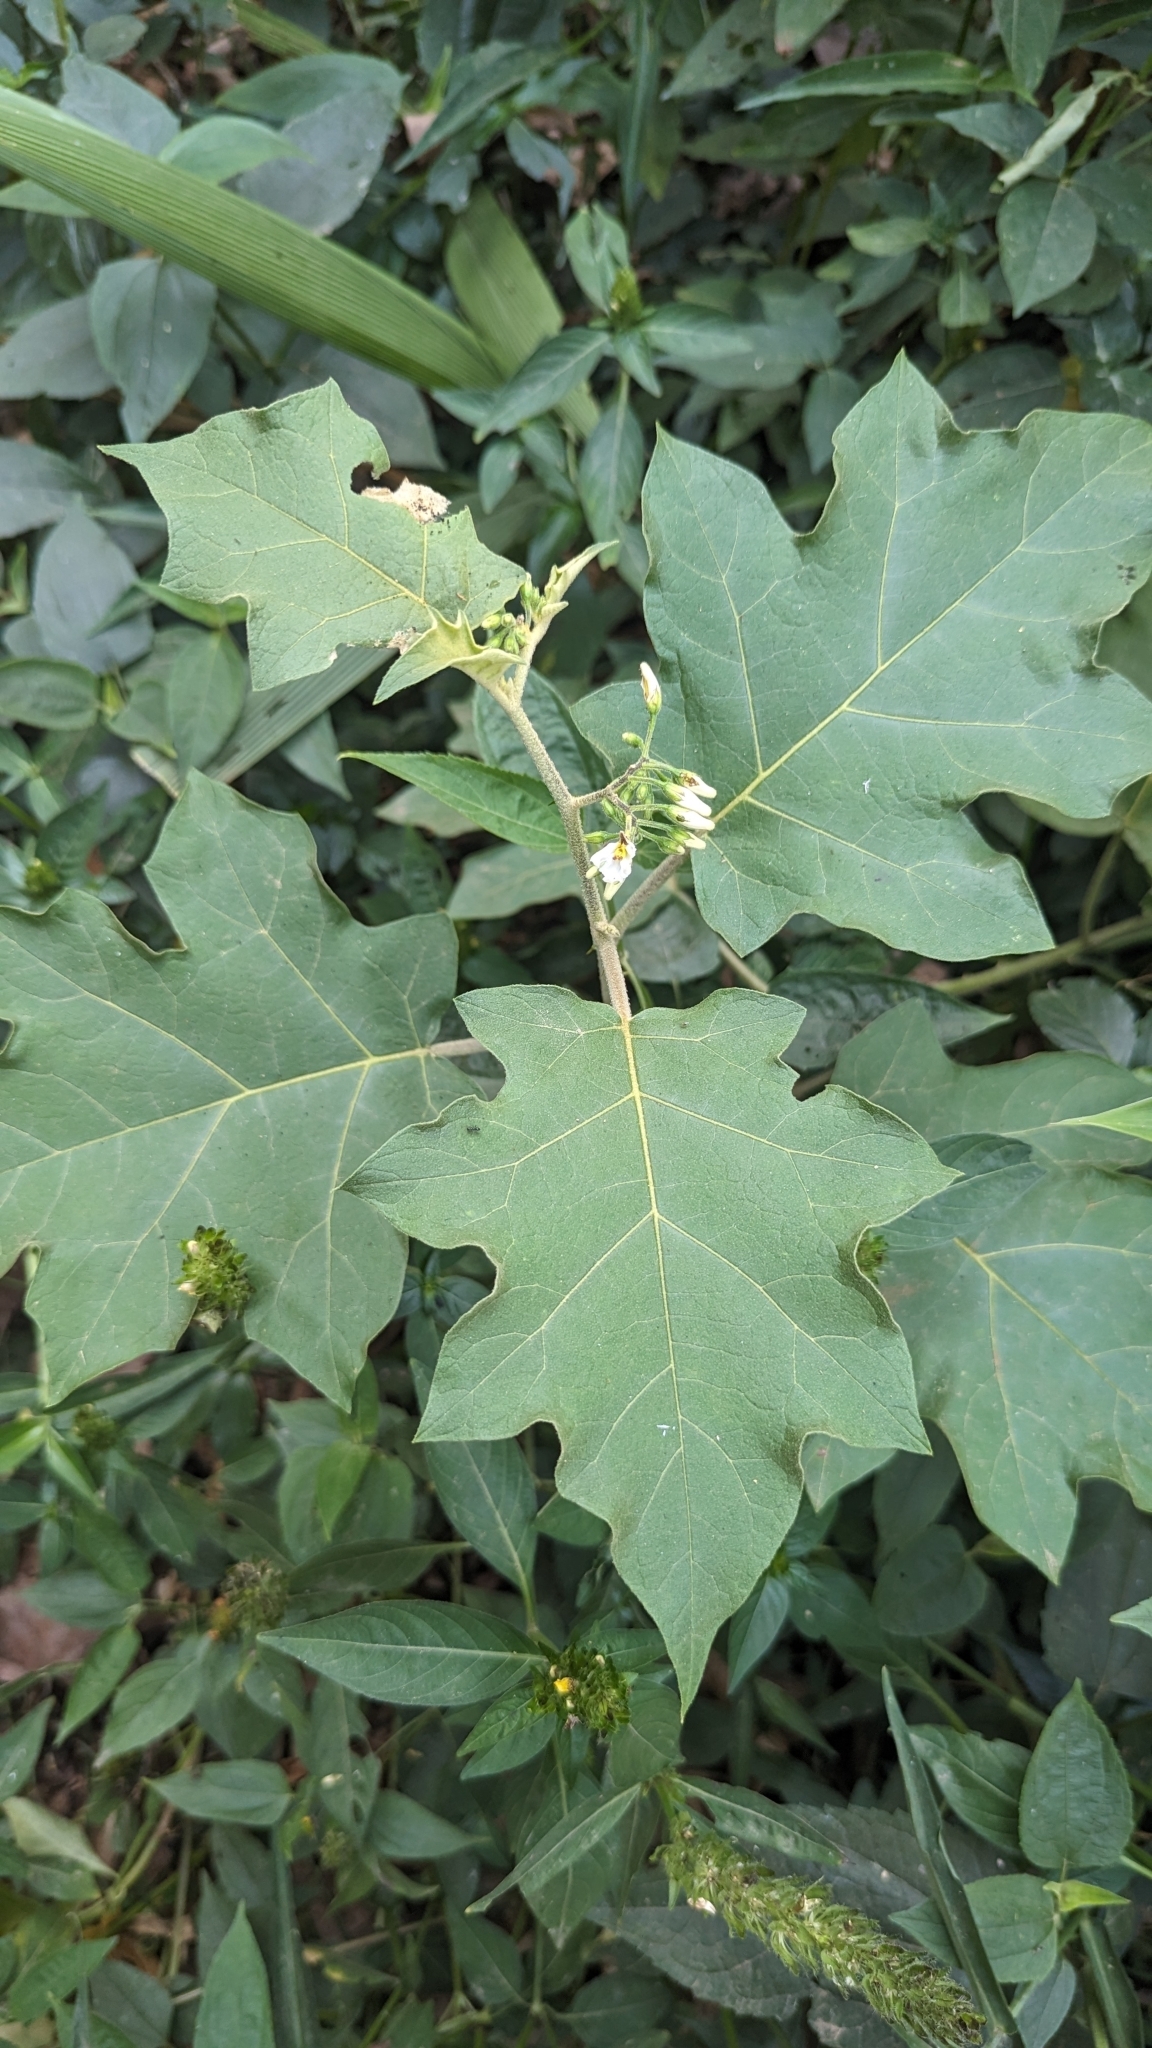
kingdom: Plantae
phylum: Tracheophyta
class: Magnoliopsida
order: Solanales
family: Solanaceae
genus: Solanum
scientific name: Solanum torvum
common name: Turkey berry
